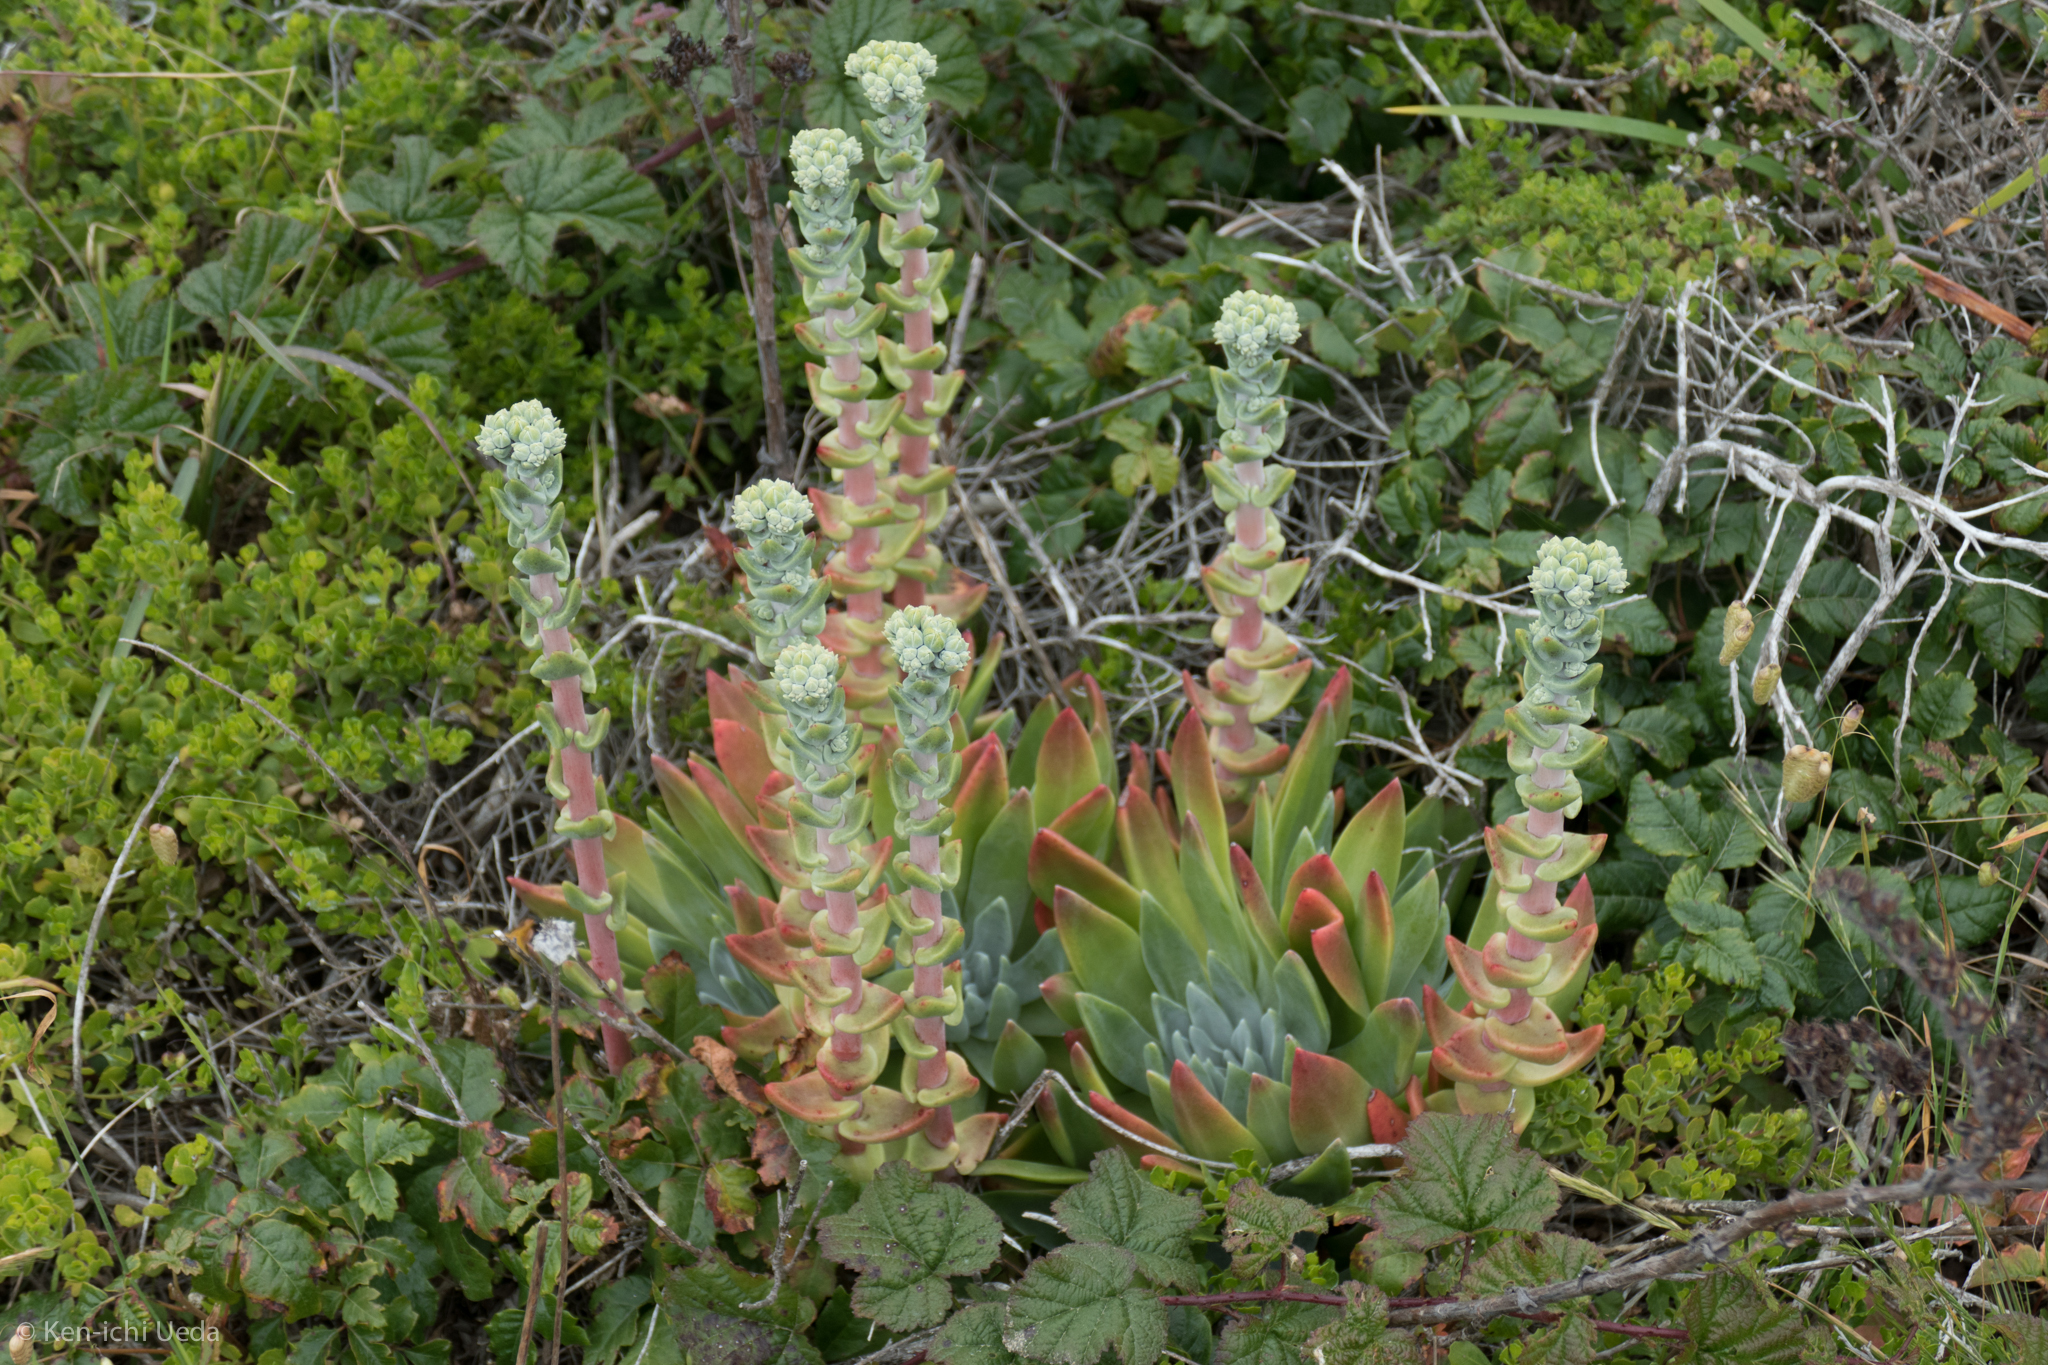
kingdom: Plantae
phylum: Tracheophyta
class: Magnoliopsida
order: Saxifragales
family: Crassulaceae
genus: Dudleya
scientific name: Dudleya caespitosa
